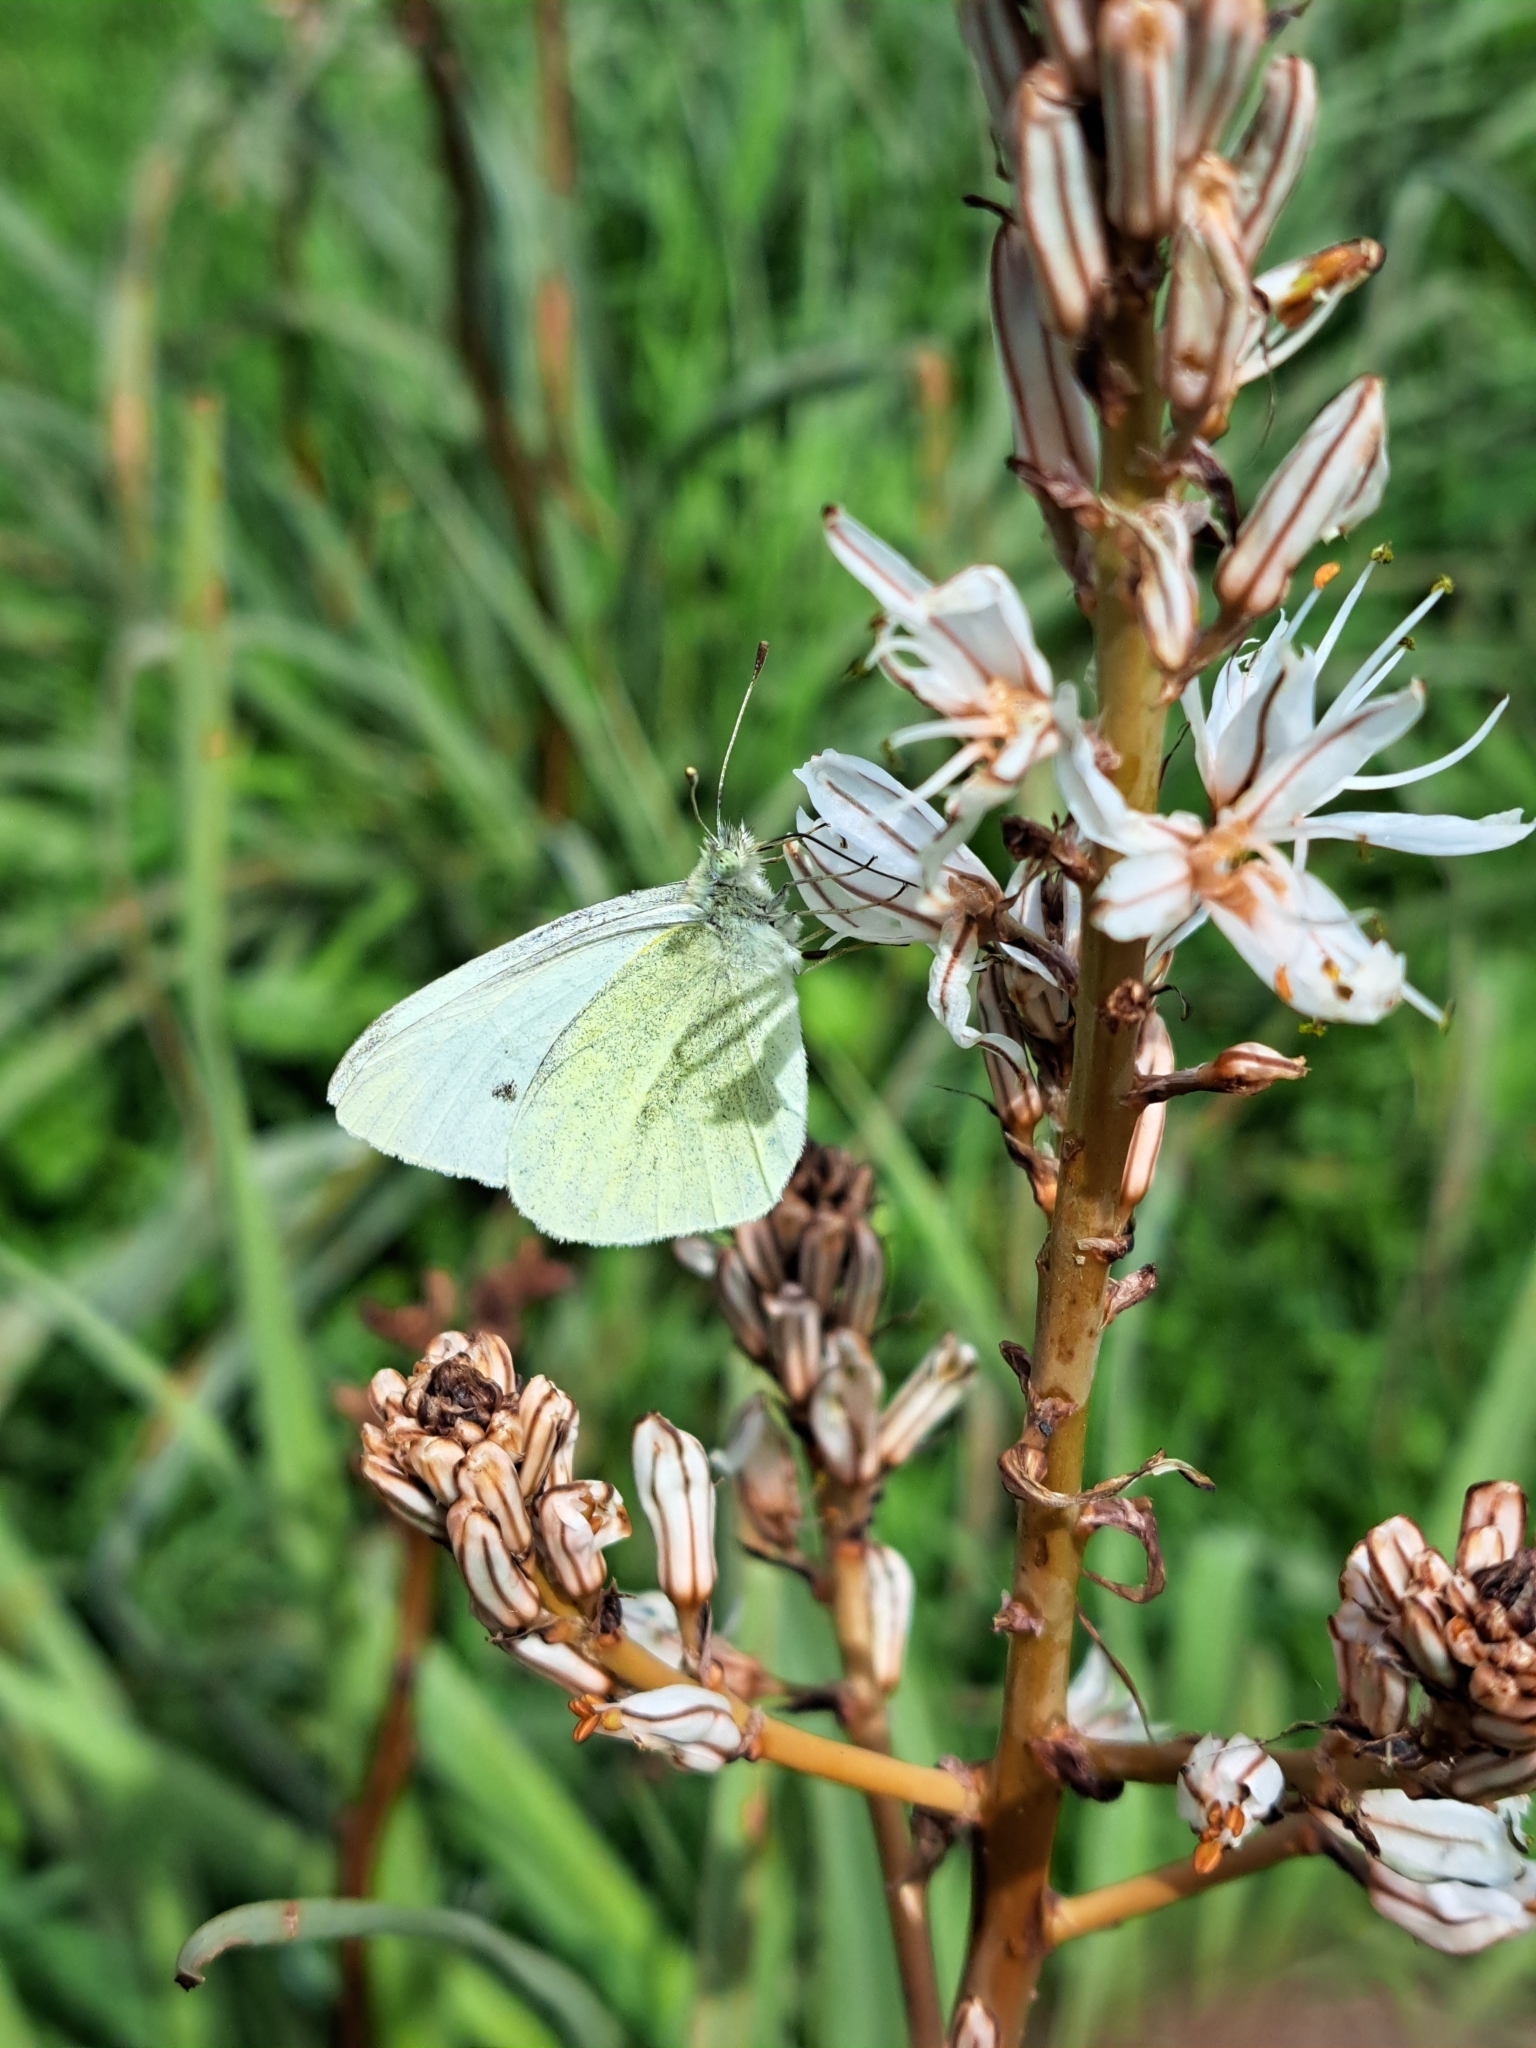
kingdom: Animalia
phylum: Arthropoda
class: Insecta
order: Lepidoptera
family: Pieridae
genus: Pieris
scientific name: Pieris rapae
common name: Small white
